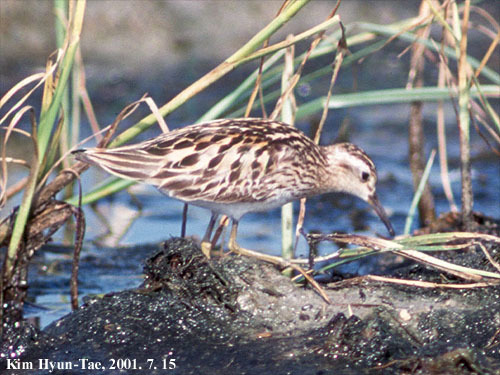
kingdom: Animalia
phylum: Chordata
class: Aves
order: Charadriiformes
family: Scolopacidae
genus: Calidris
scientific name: Calidris acuminata
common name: Sharp-tailed sandpiper
